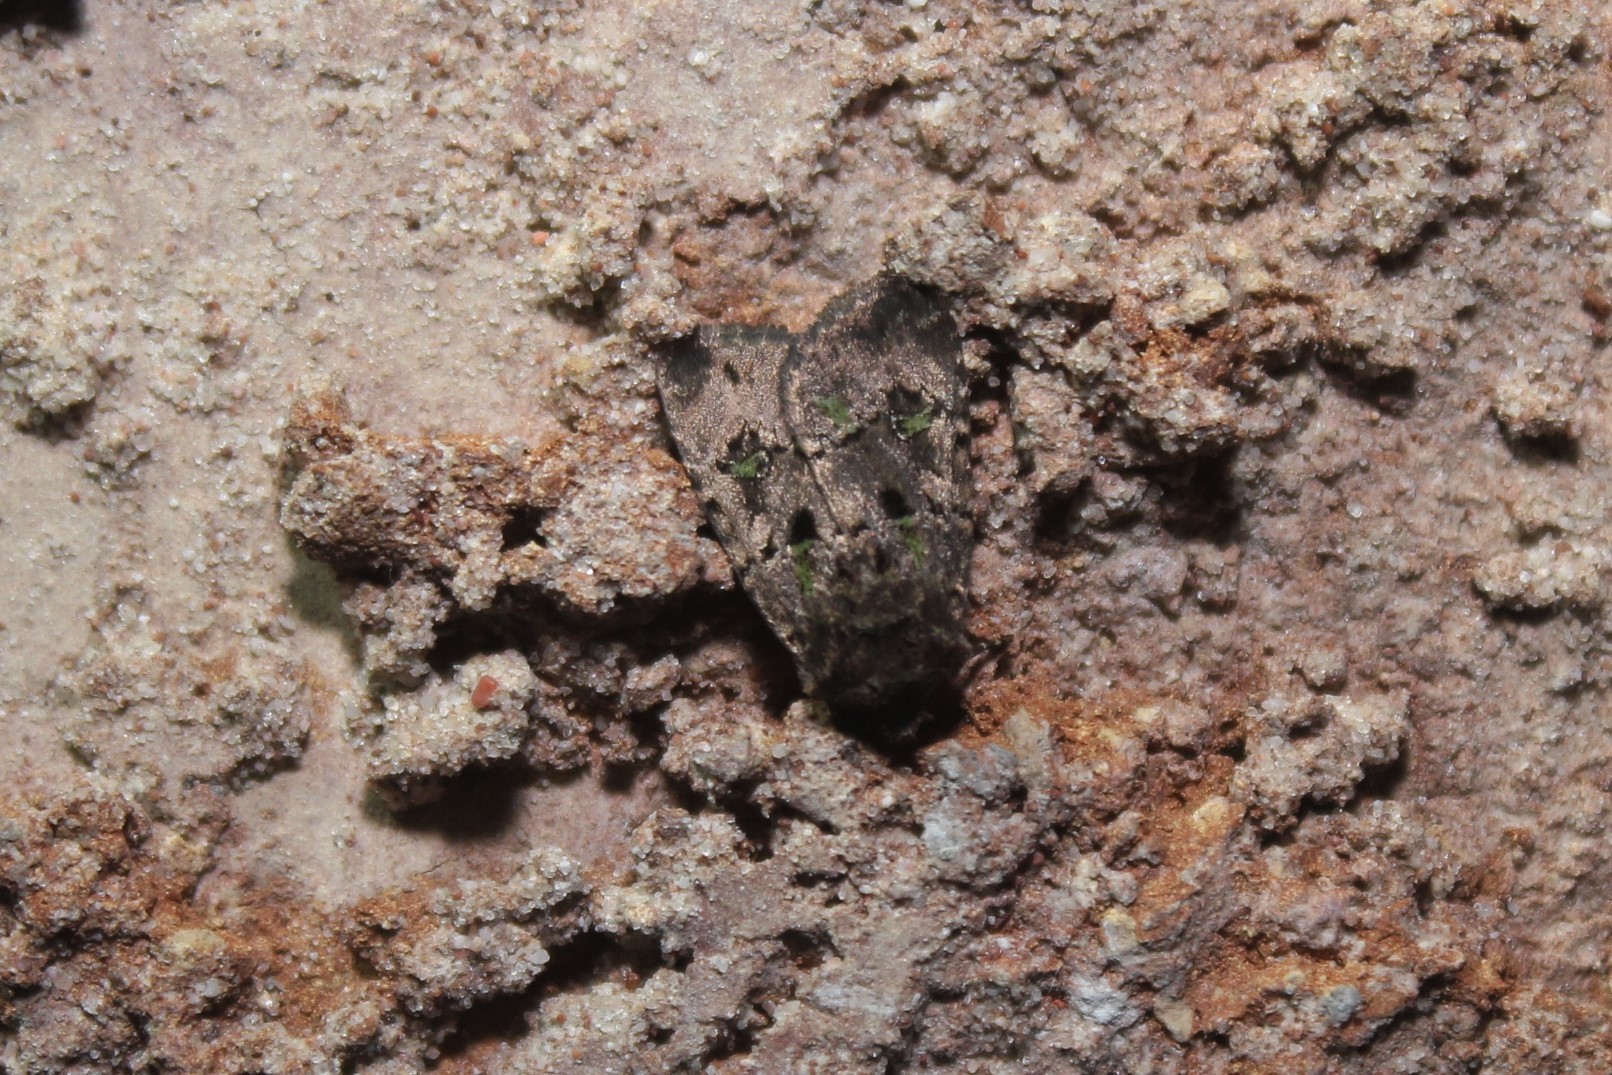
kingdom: Animalia
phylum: Arthropoda
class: Insecta
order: Lepidoptera
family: Noctuidae
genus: Lacinipolia
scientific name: Lacinipolia renigera
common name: Kidney-spotted minor
